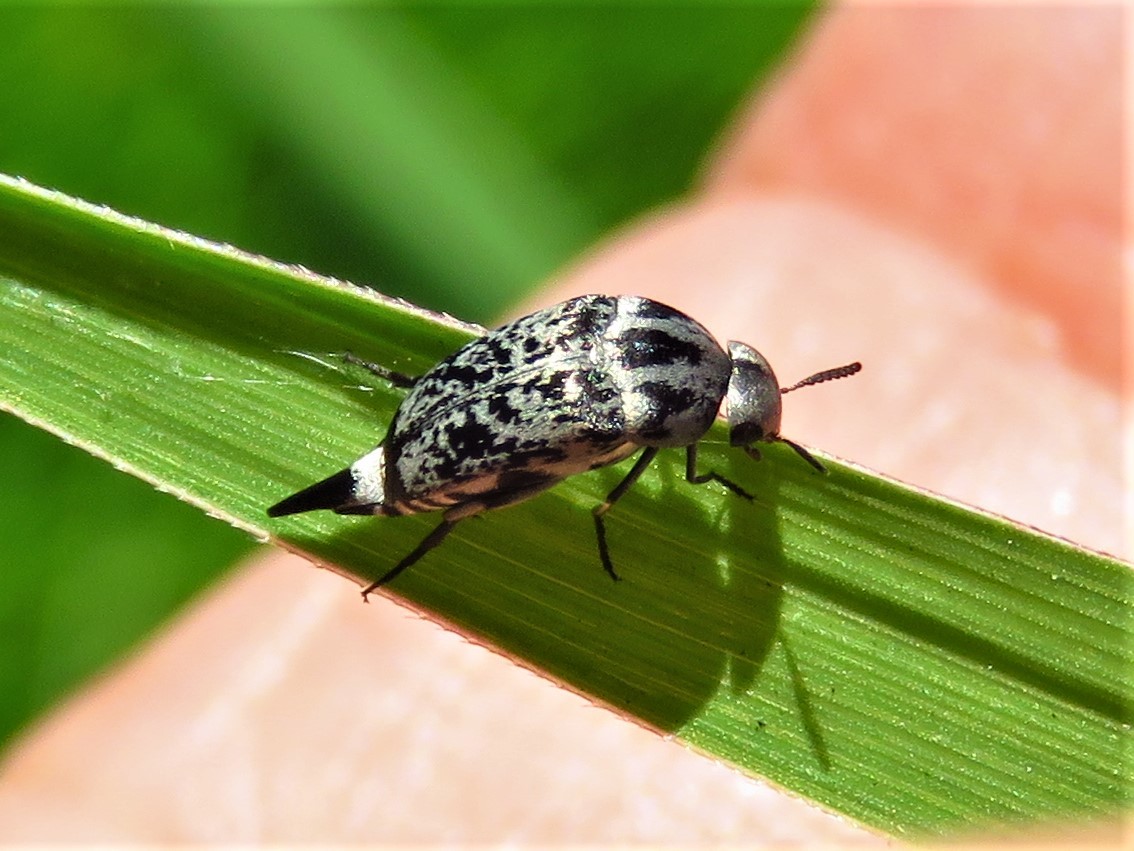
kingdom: Animalia
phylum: Arthropoda
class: Insecta
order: Coleoptera
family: Mordellidae
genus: Mordella
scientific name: Mordella marginata
